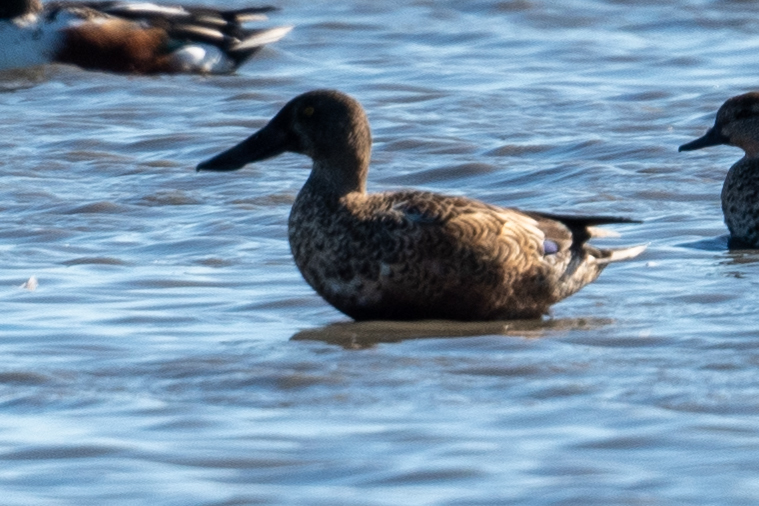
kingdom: Animalia
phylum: Chordata
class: Aves
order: Anseriformes
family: Anatidae
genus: Spatula
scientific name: Spatula clypeata
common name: Northern shoveler
